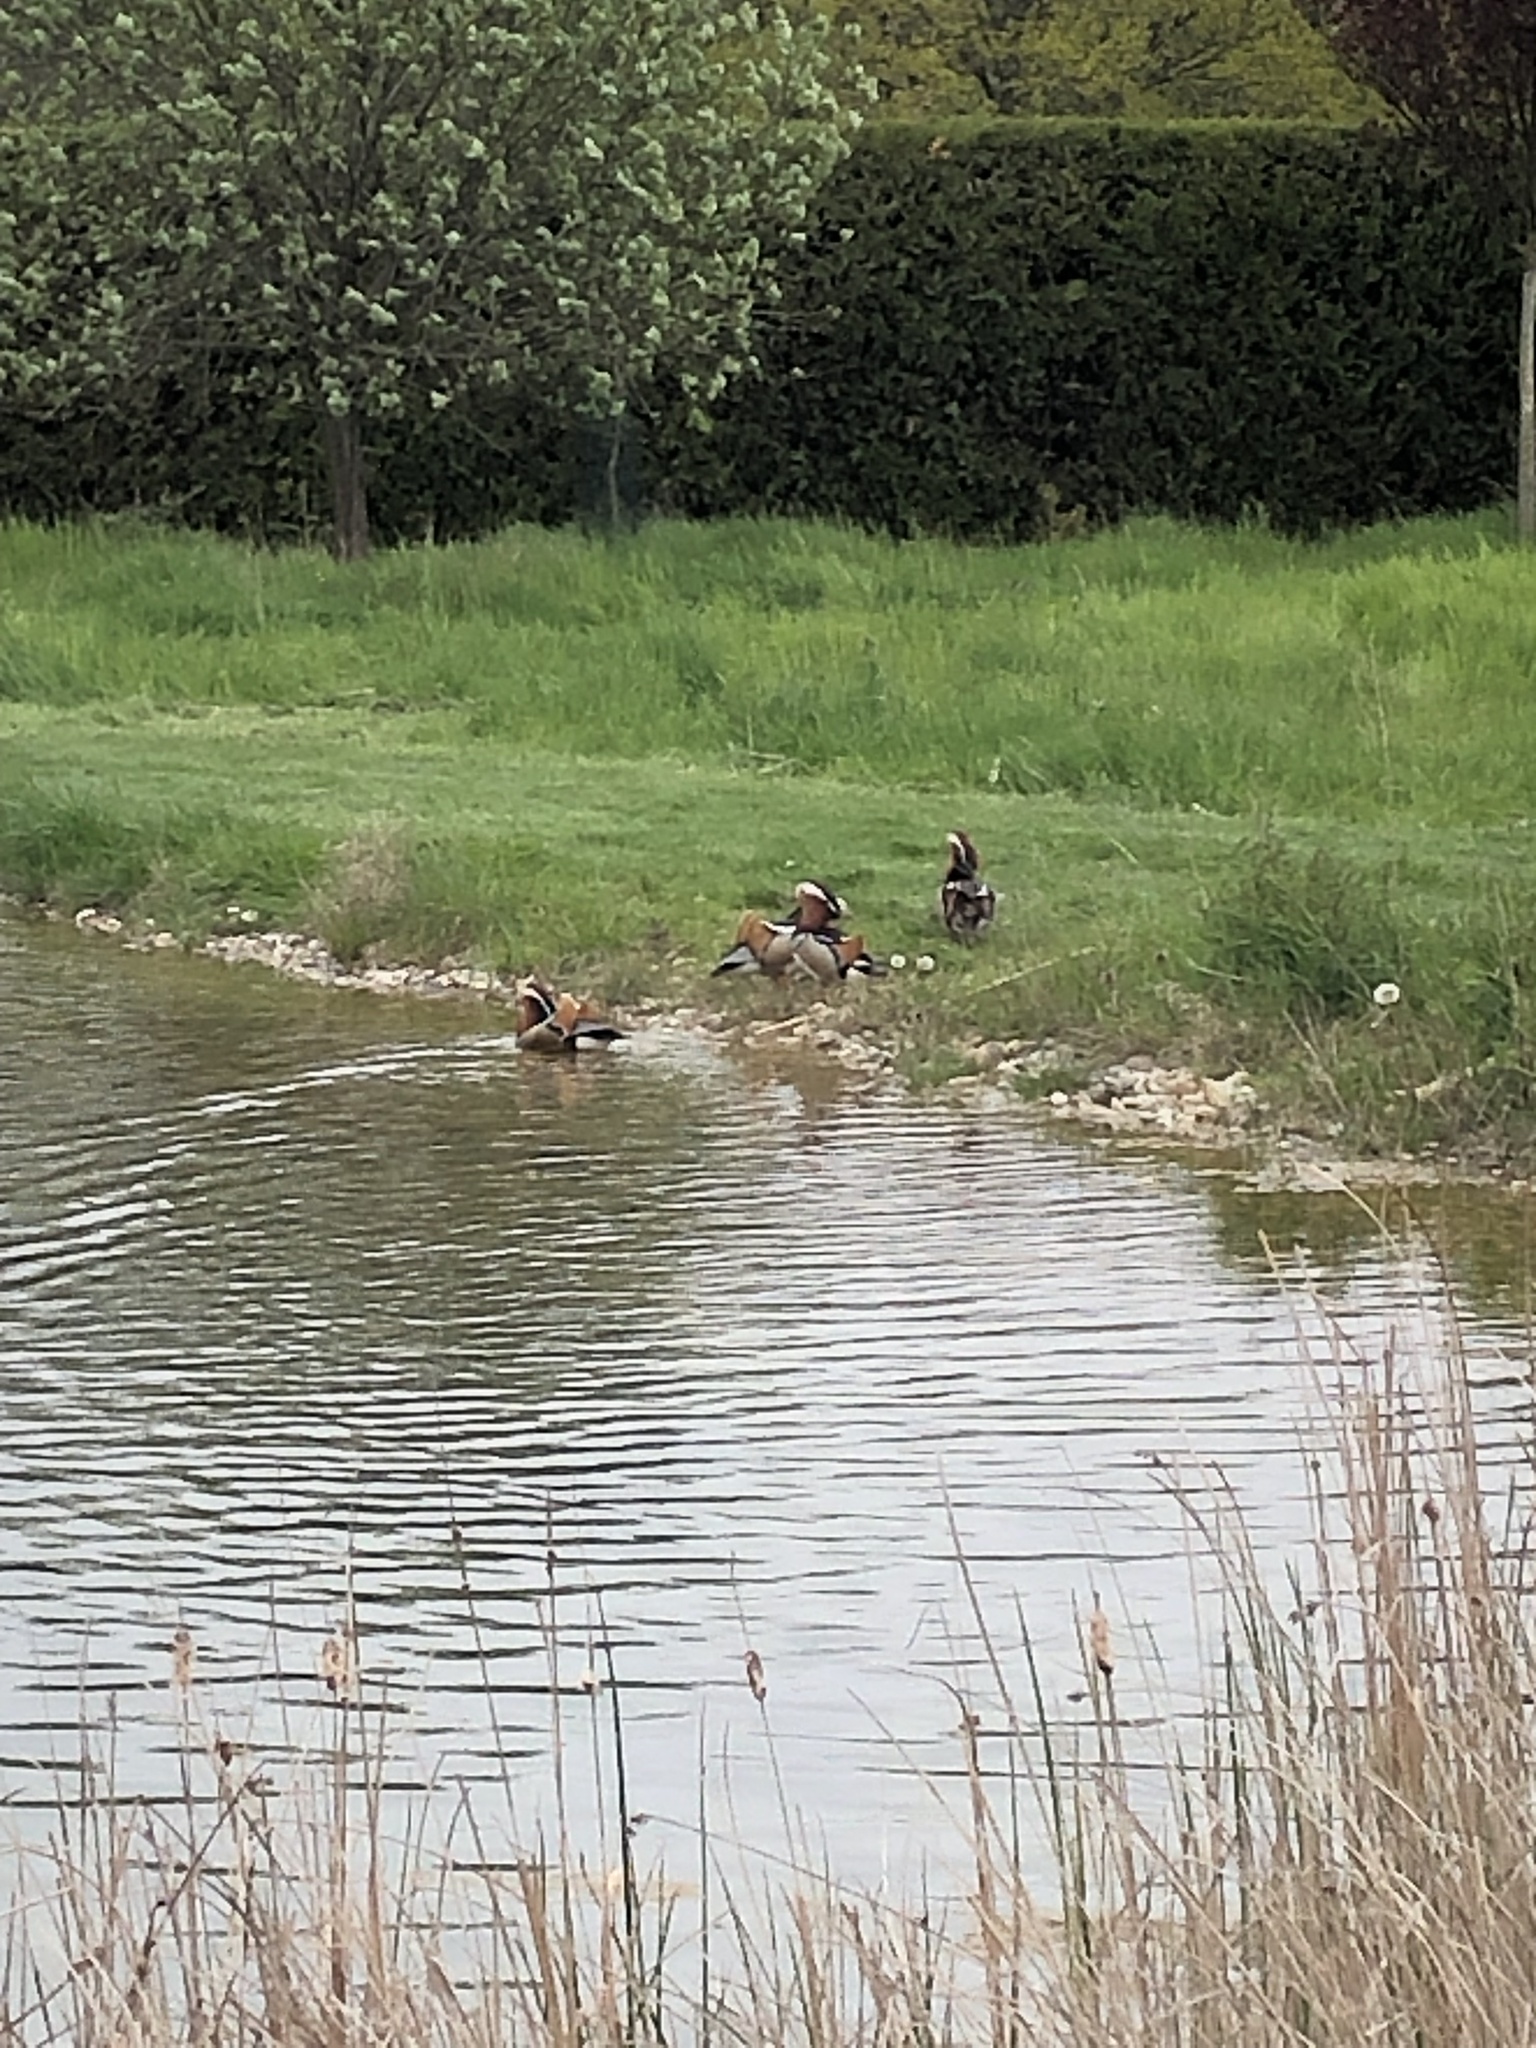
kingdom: Animalia
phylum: Chordata
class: Aves
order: Anseriformes
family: Anatidae
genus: Aix
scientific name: Aix galericulata
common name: Mandarin duck
